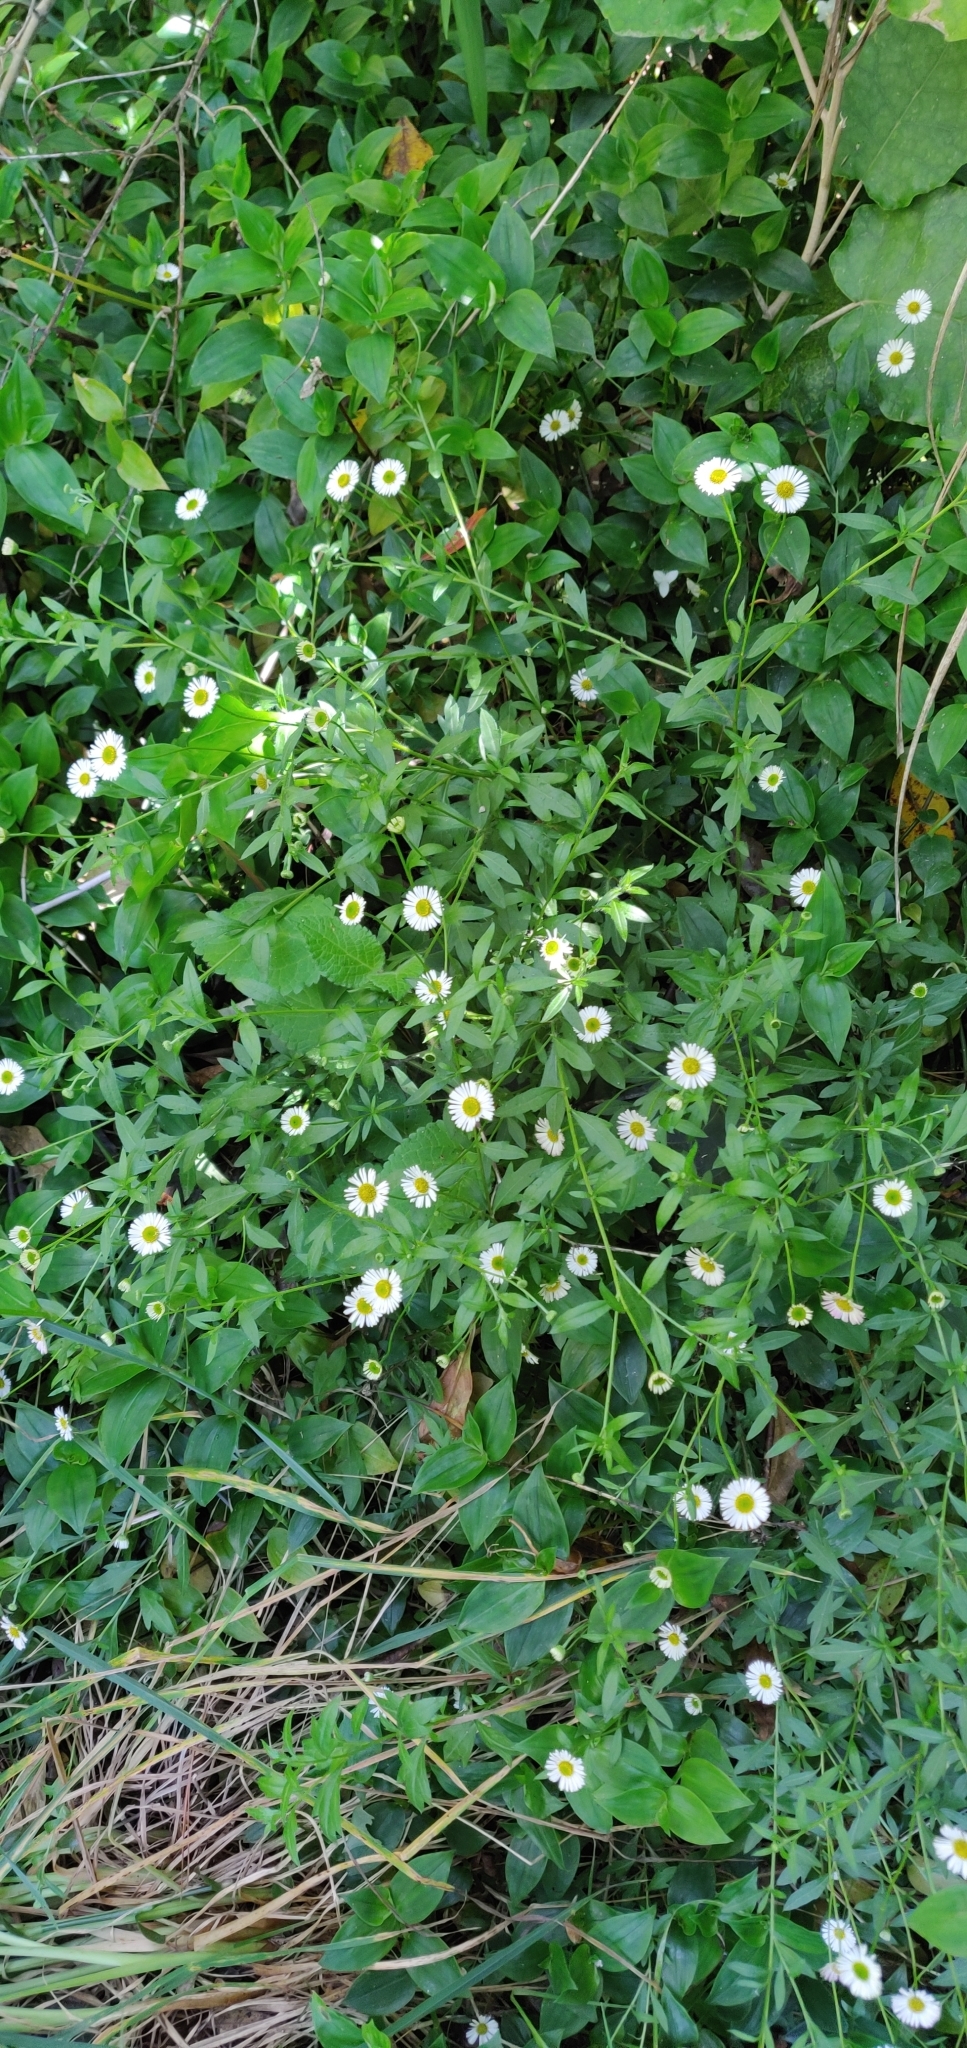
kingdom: Plantae
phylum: Tracheophyta
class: Magnoliopsida
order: Asterales
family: Asteraceae
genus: Erigeron
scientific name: Erigeron karvinskianus
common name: Mexican fleabane
